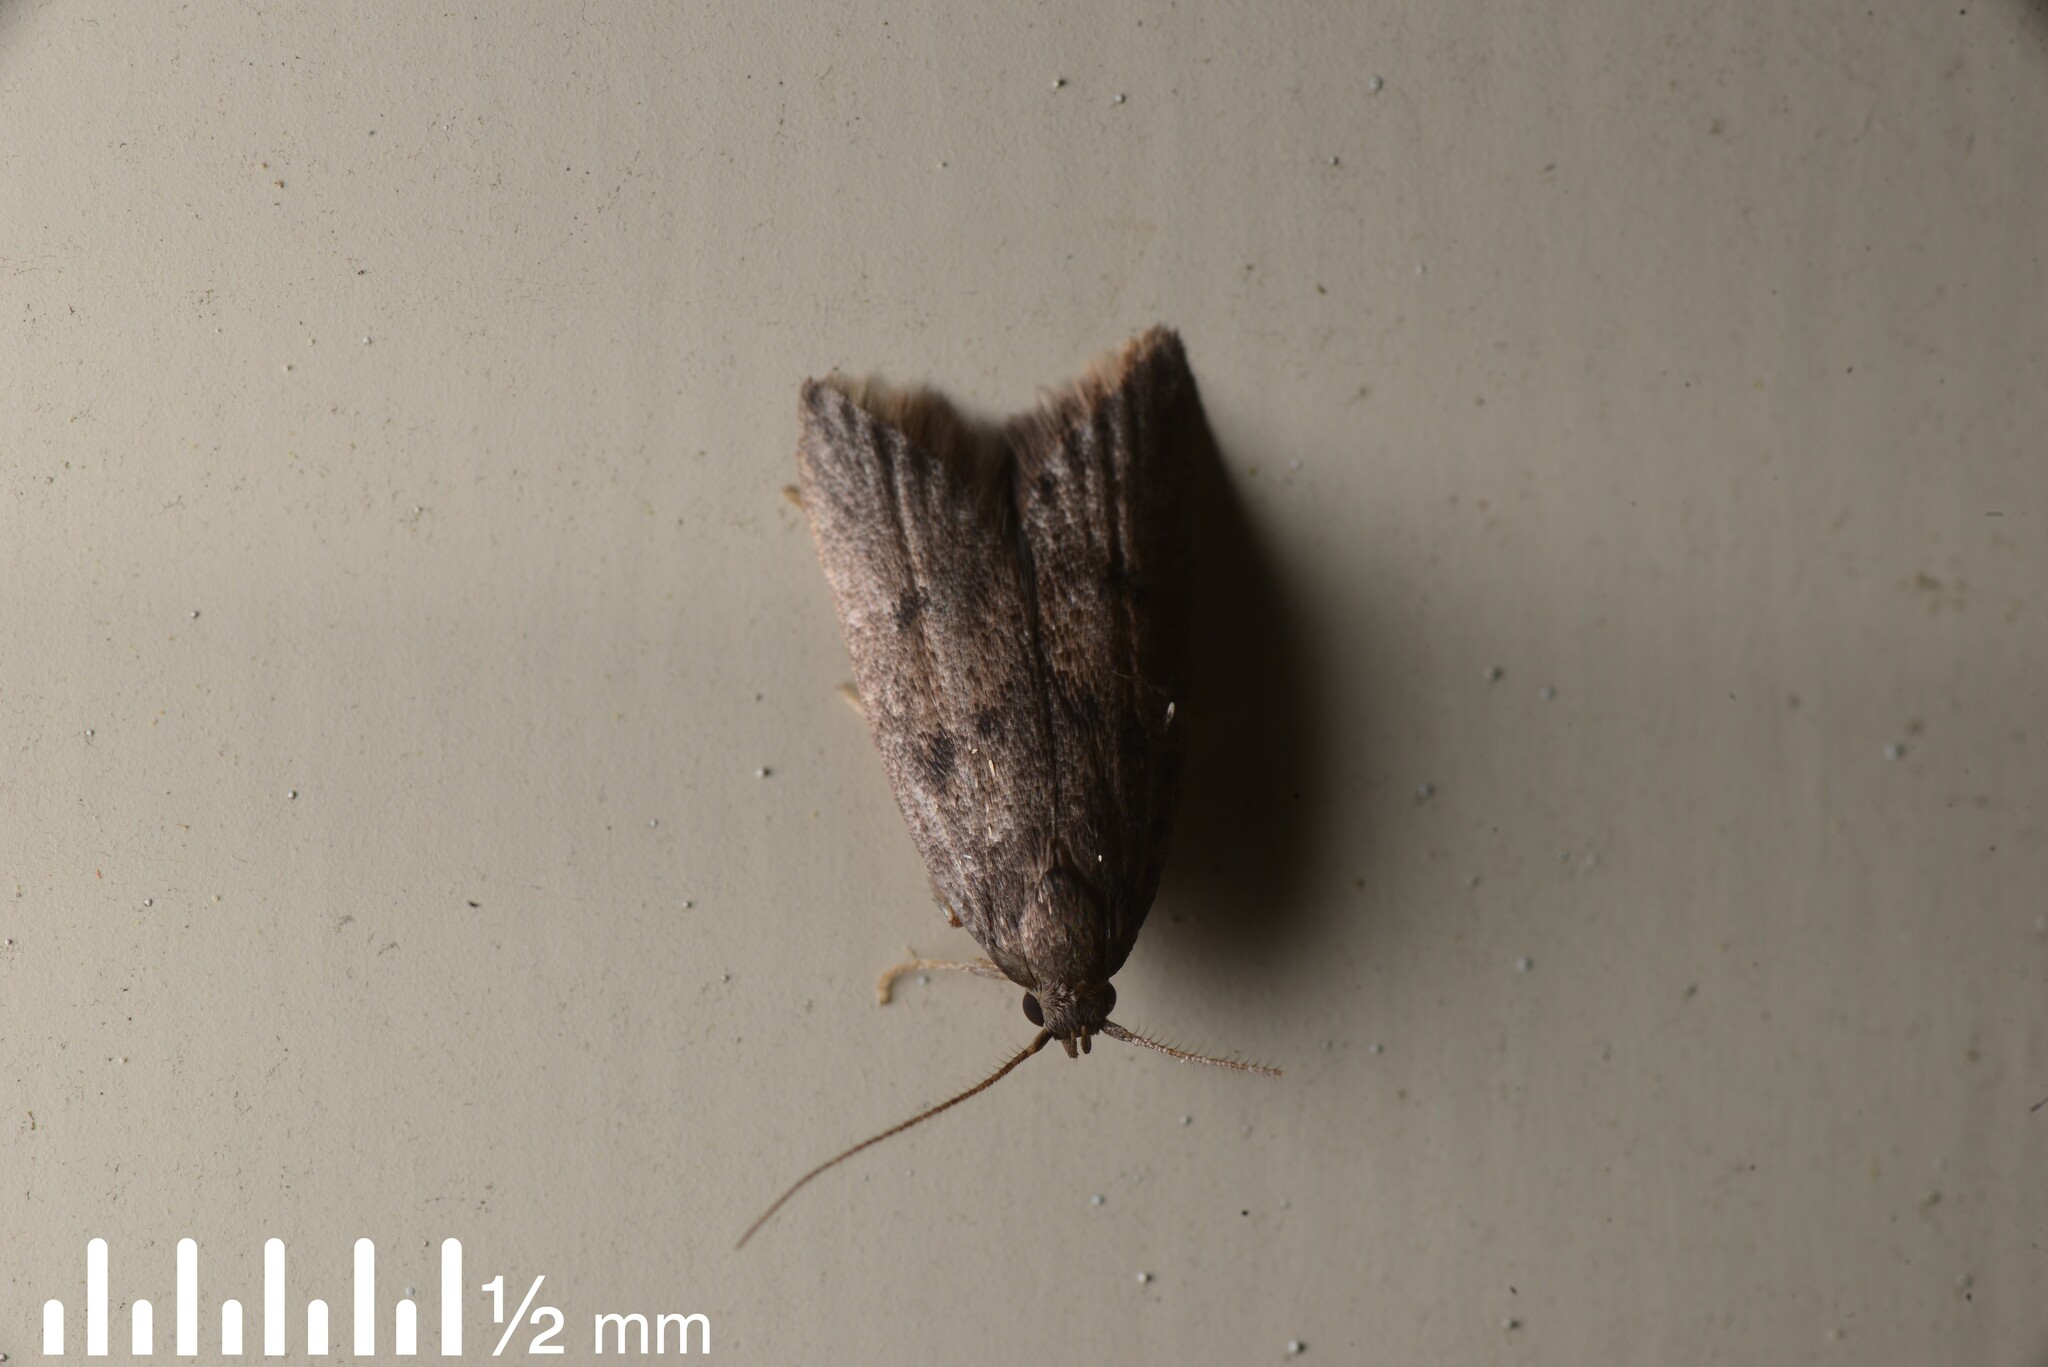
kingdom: Animalia
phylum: Arthropoda
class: Insecta
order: Lepidoptera
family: Oecophoridae
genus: Tachystola
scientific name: Tachystola acroxantha
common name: Ruddy streak
